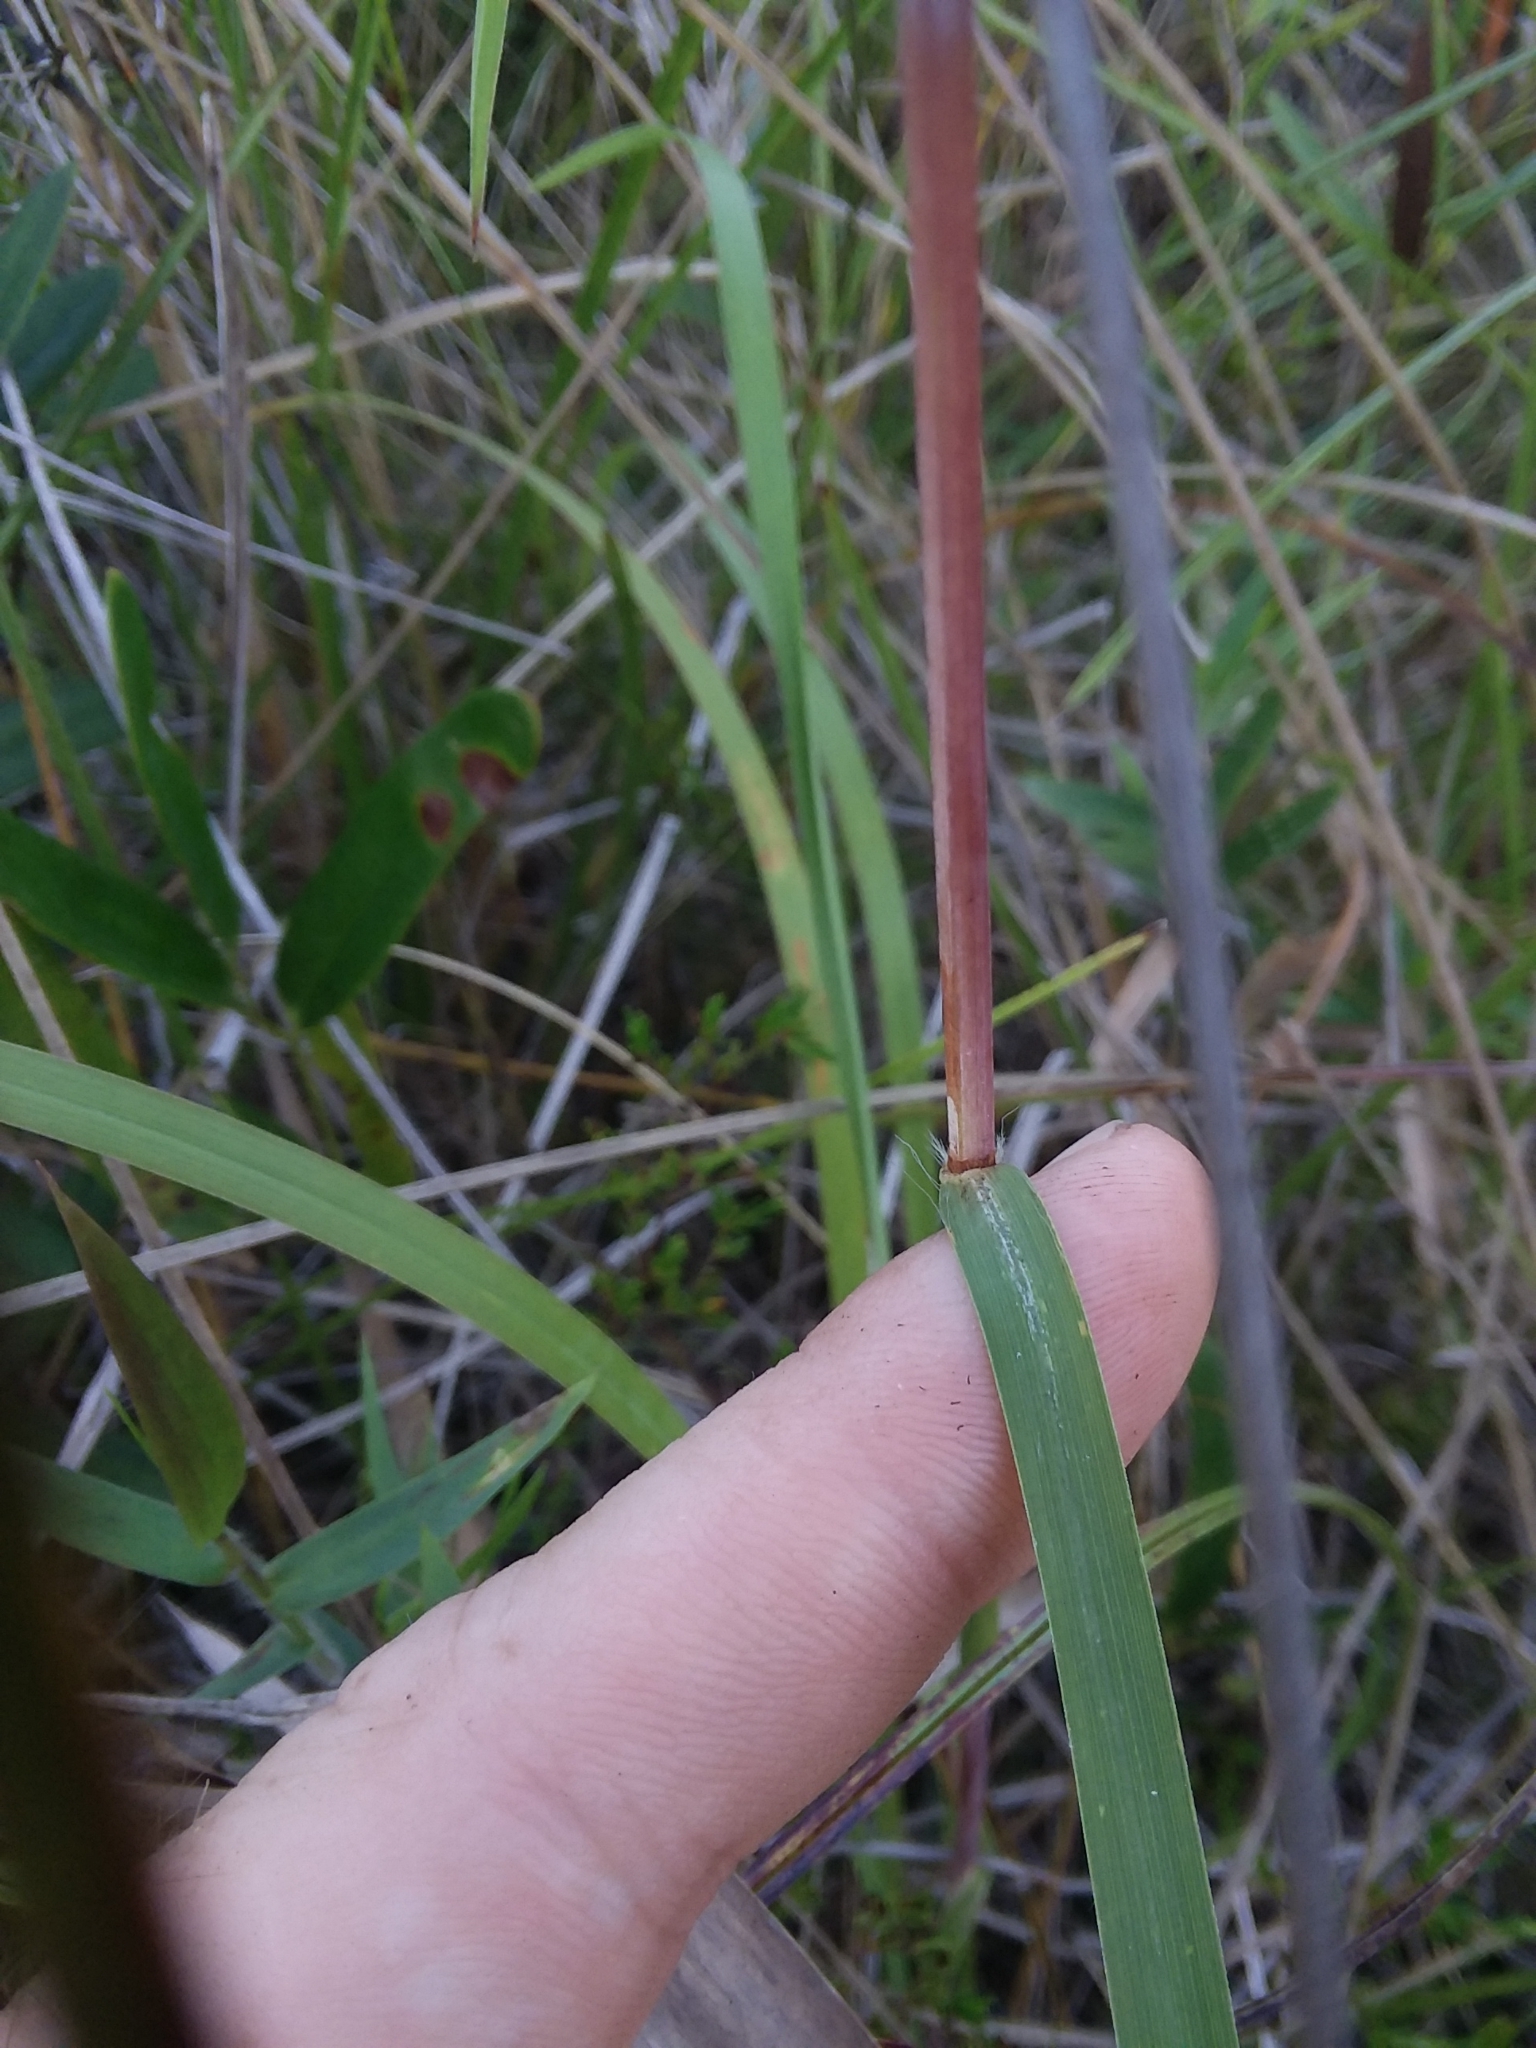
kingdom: Plantae
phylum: Tracheophyta
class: Liliopsida
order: Poales
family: Poaceae
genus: Schizachyrium
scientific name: Schizachyrium scoparium
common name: Little bluestem
